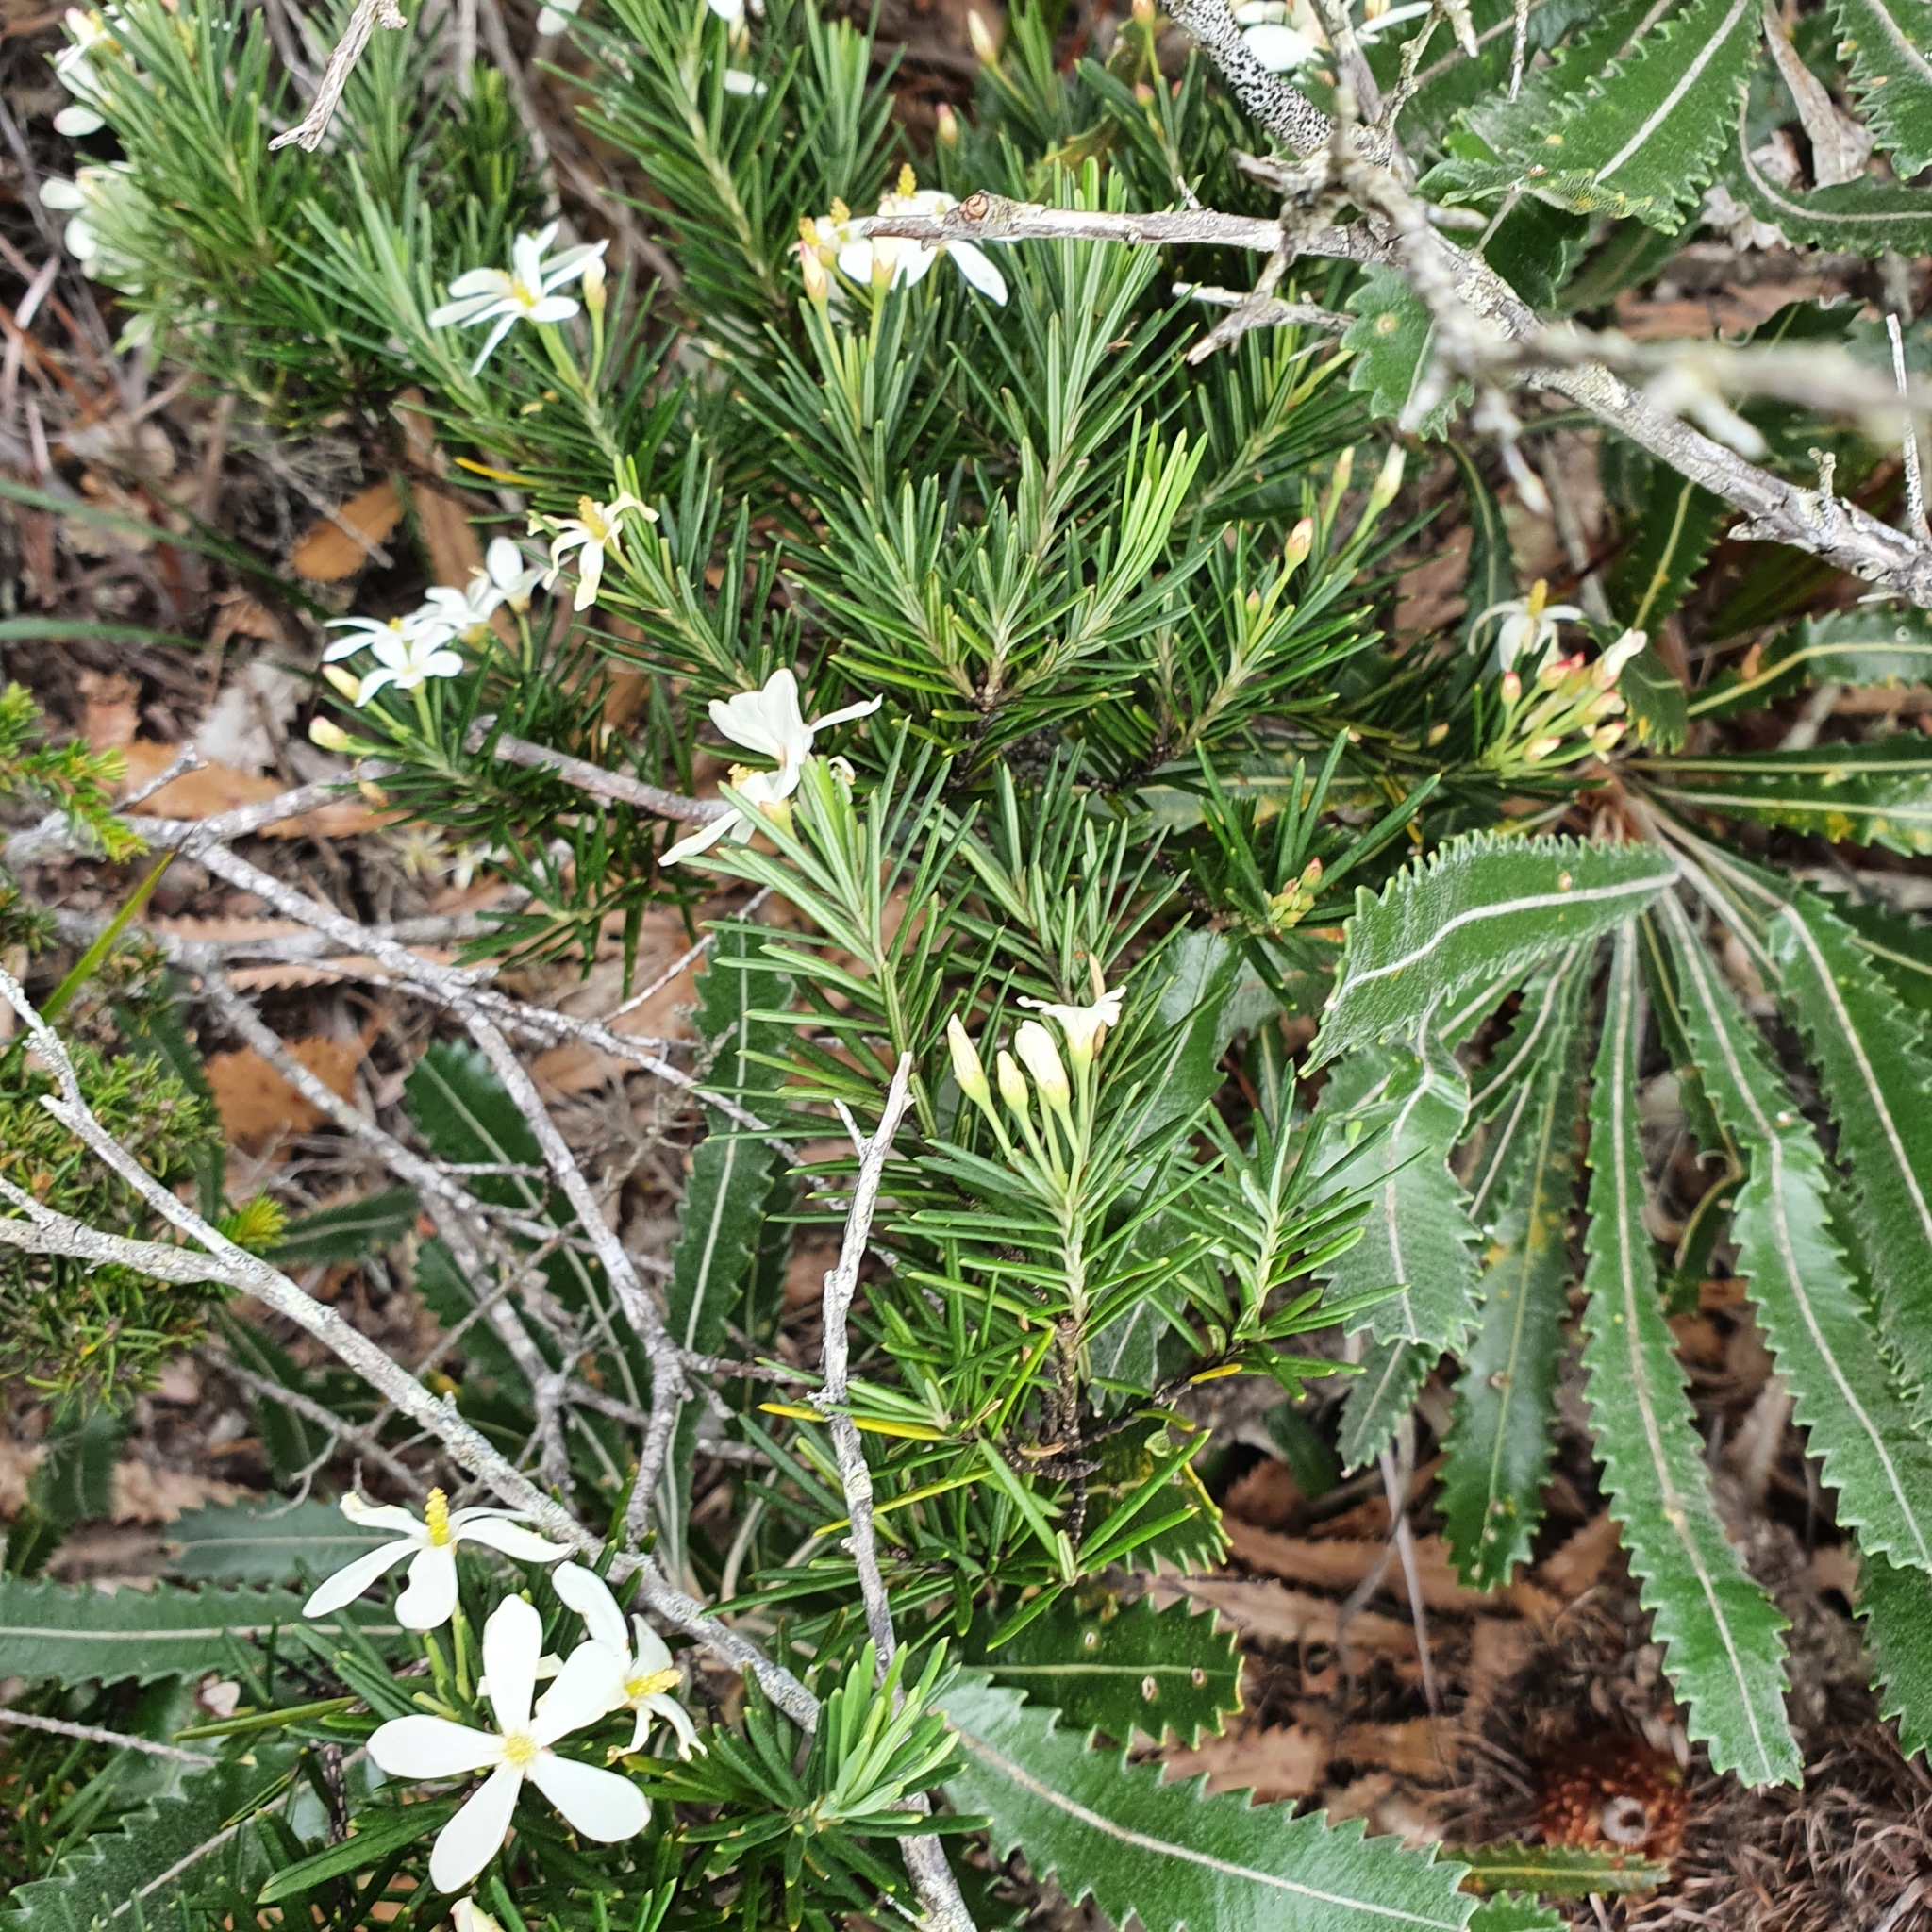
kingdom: Plantae
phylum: Tracheophyta
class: Magnoliopsida
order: Malpighiales
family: Euphorbiaceae
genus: Ricinocarpos
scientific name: Ricinocarpos pinifolius
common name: Weddingbush
